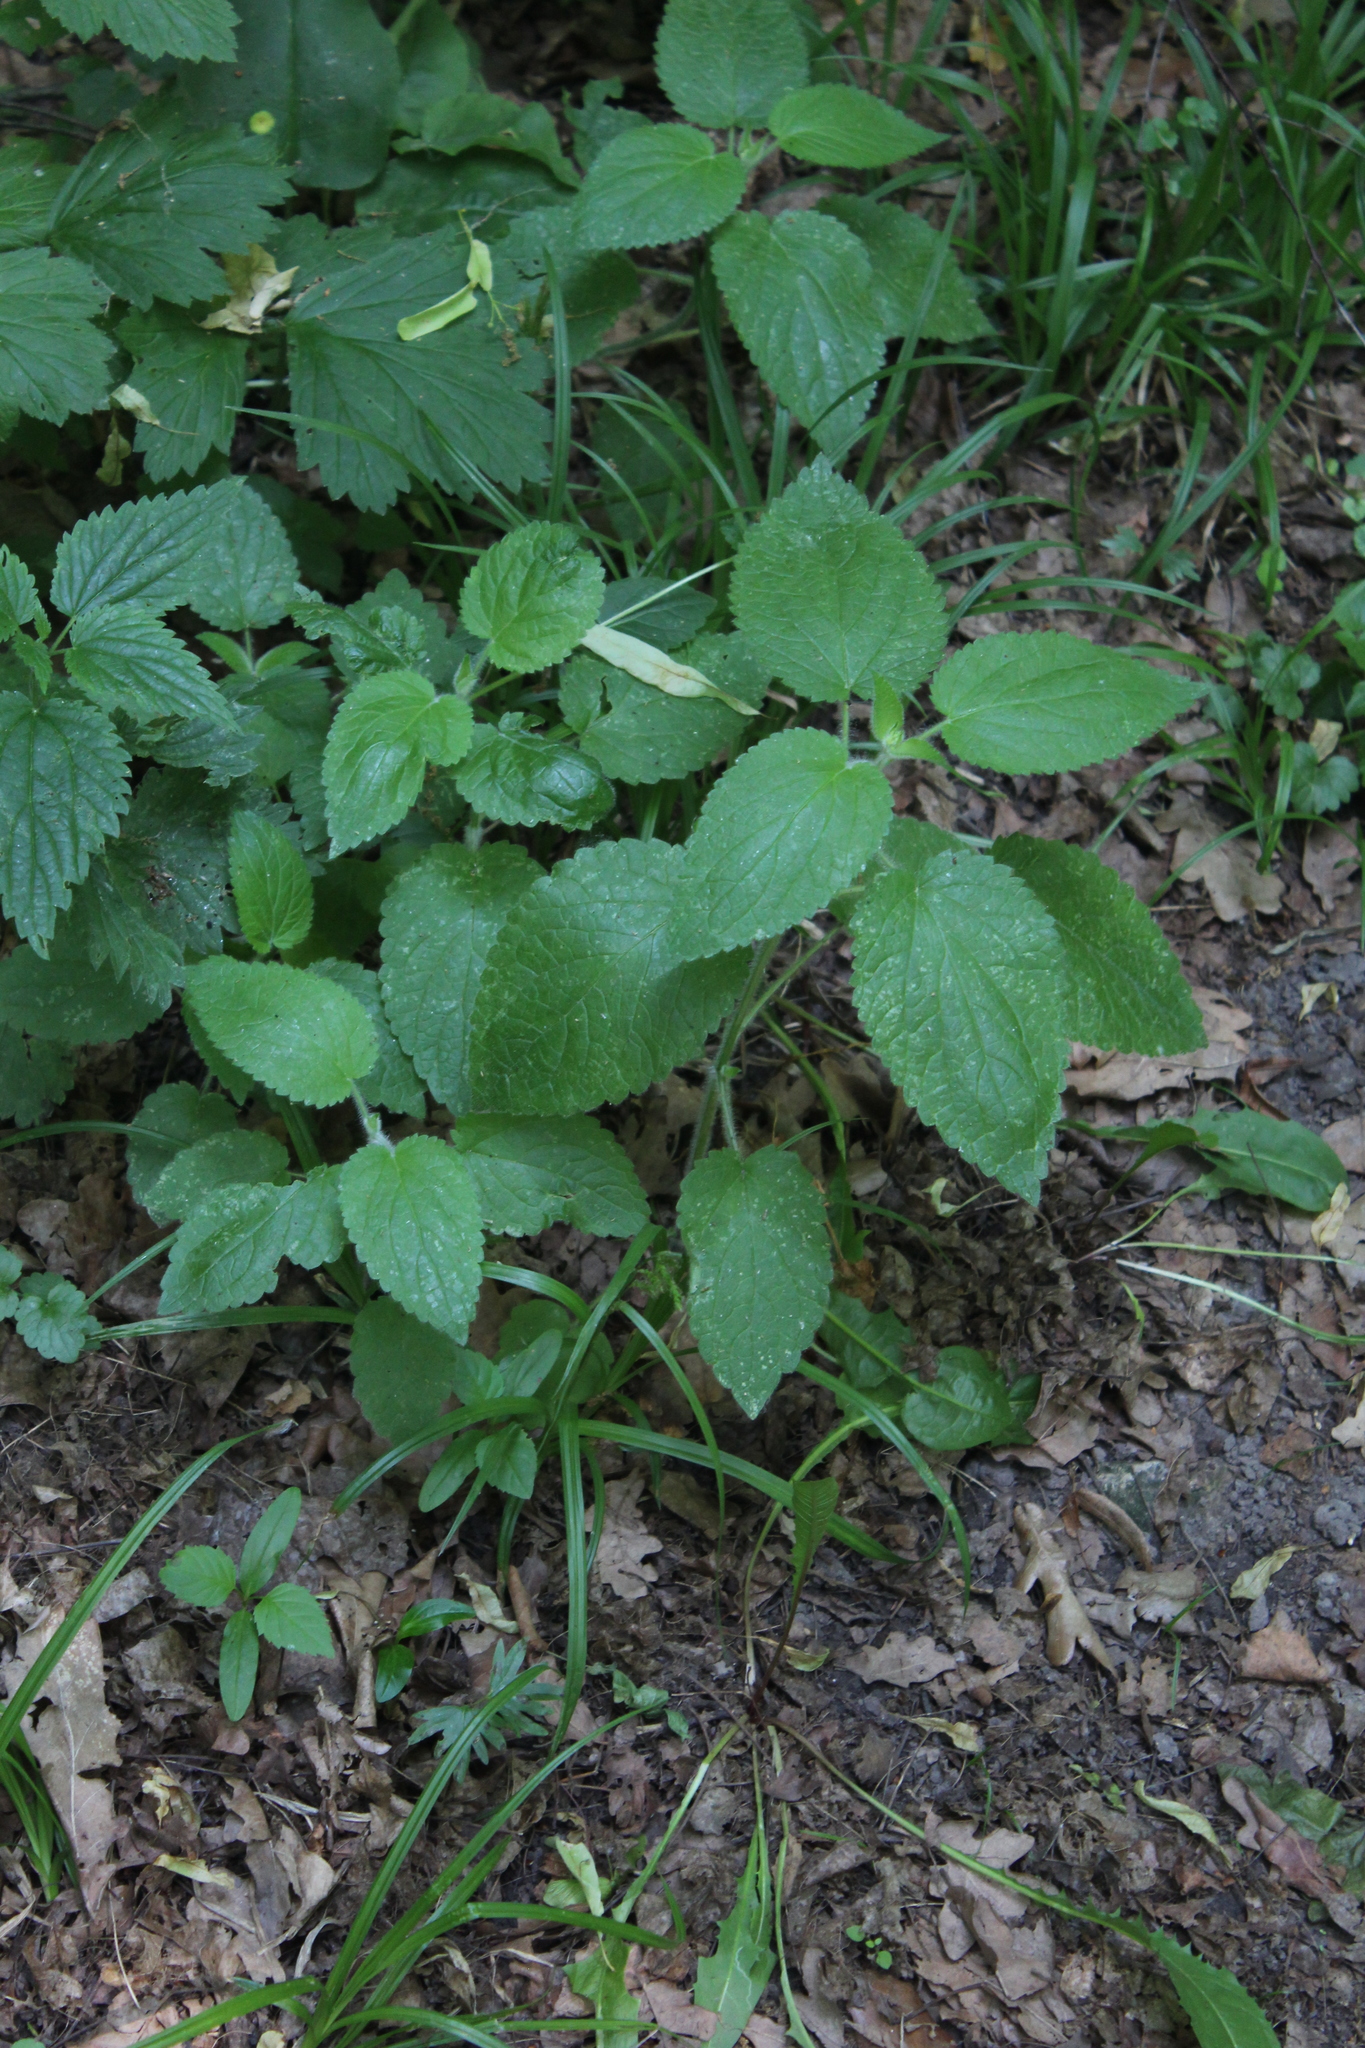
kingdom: Plantae
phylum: Tracheophyta
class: Magnoliopsida
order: Lamiales
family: Lamiaceae
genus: Stachys
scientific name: Stachys sylvatica
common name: Hedge woundwort
